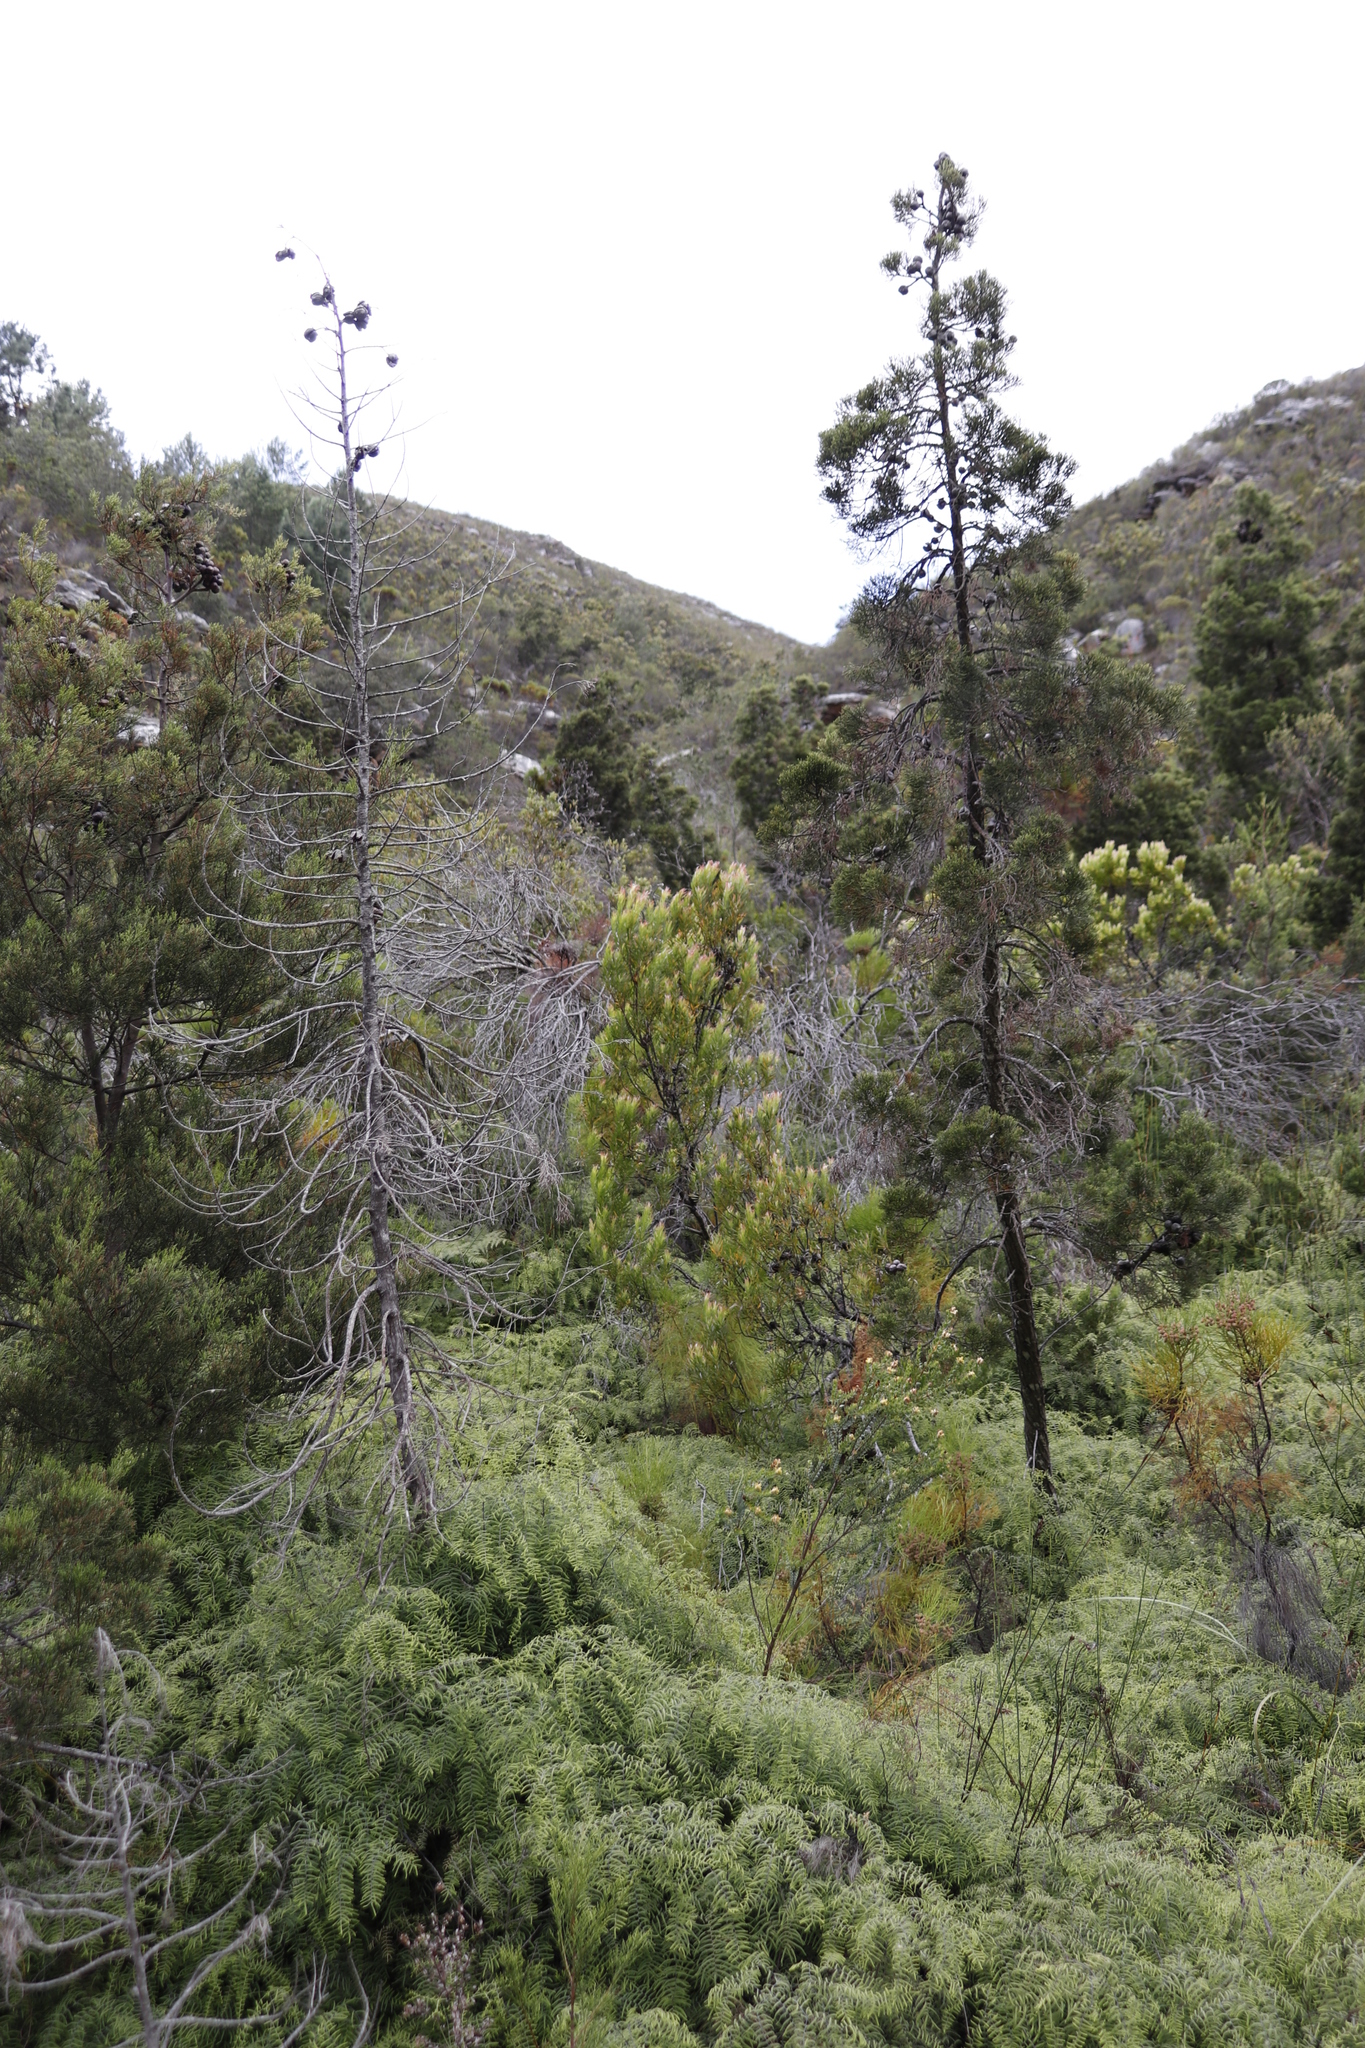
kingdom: Plantae
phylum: Tracheophyta
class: Magnoliopsida
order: Proteales
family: Proteaceae
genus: Leucadendron
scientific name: Leucadendron xanthoconus
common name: Sickle-leaf conebush
